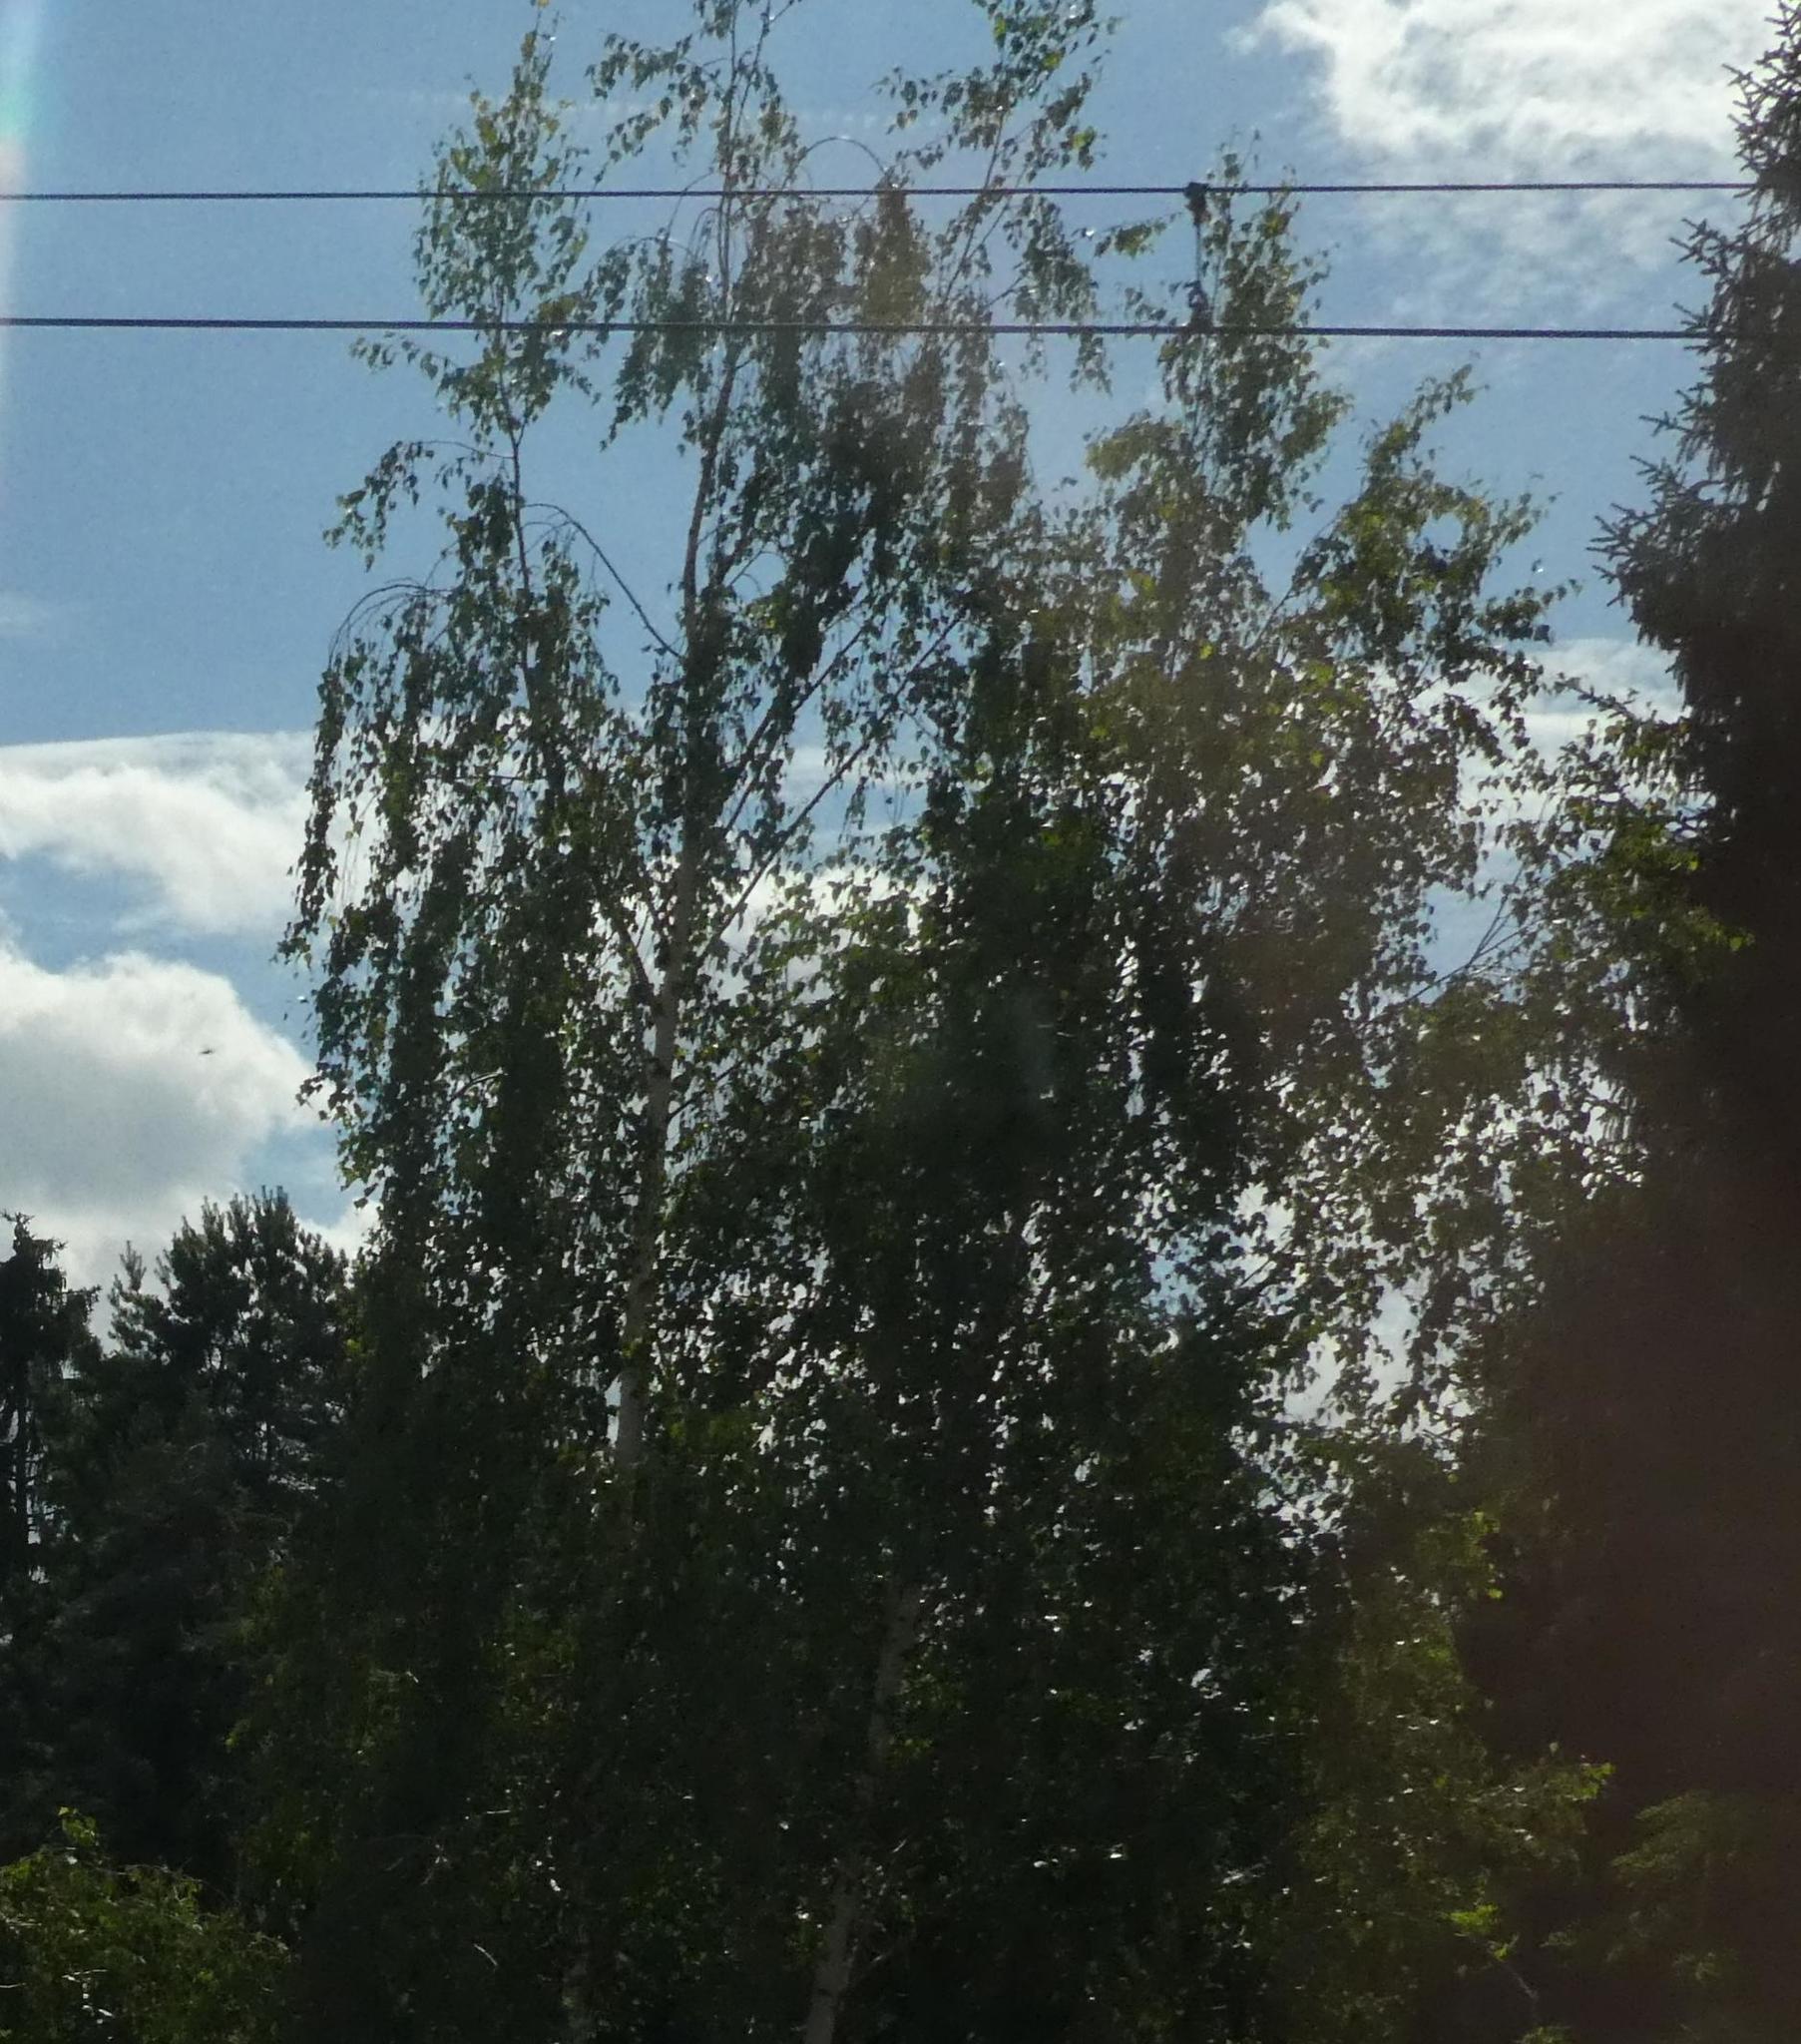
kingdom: Plantae
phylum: Tracheophyta
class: Magnoliopsida
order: Fagales
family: Betulaceae
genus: Betula
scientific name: Betula pendula
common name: Silver birch
